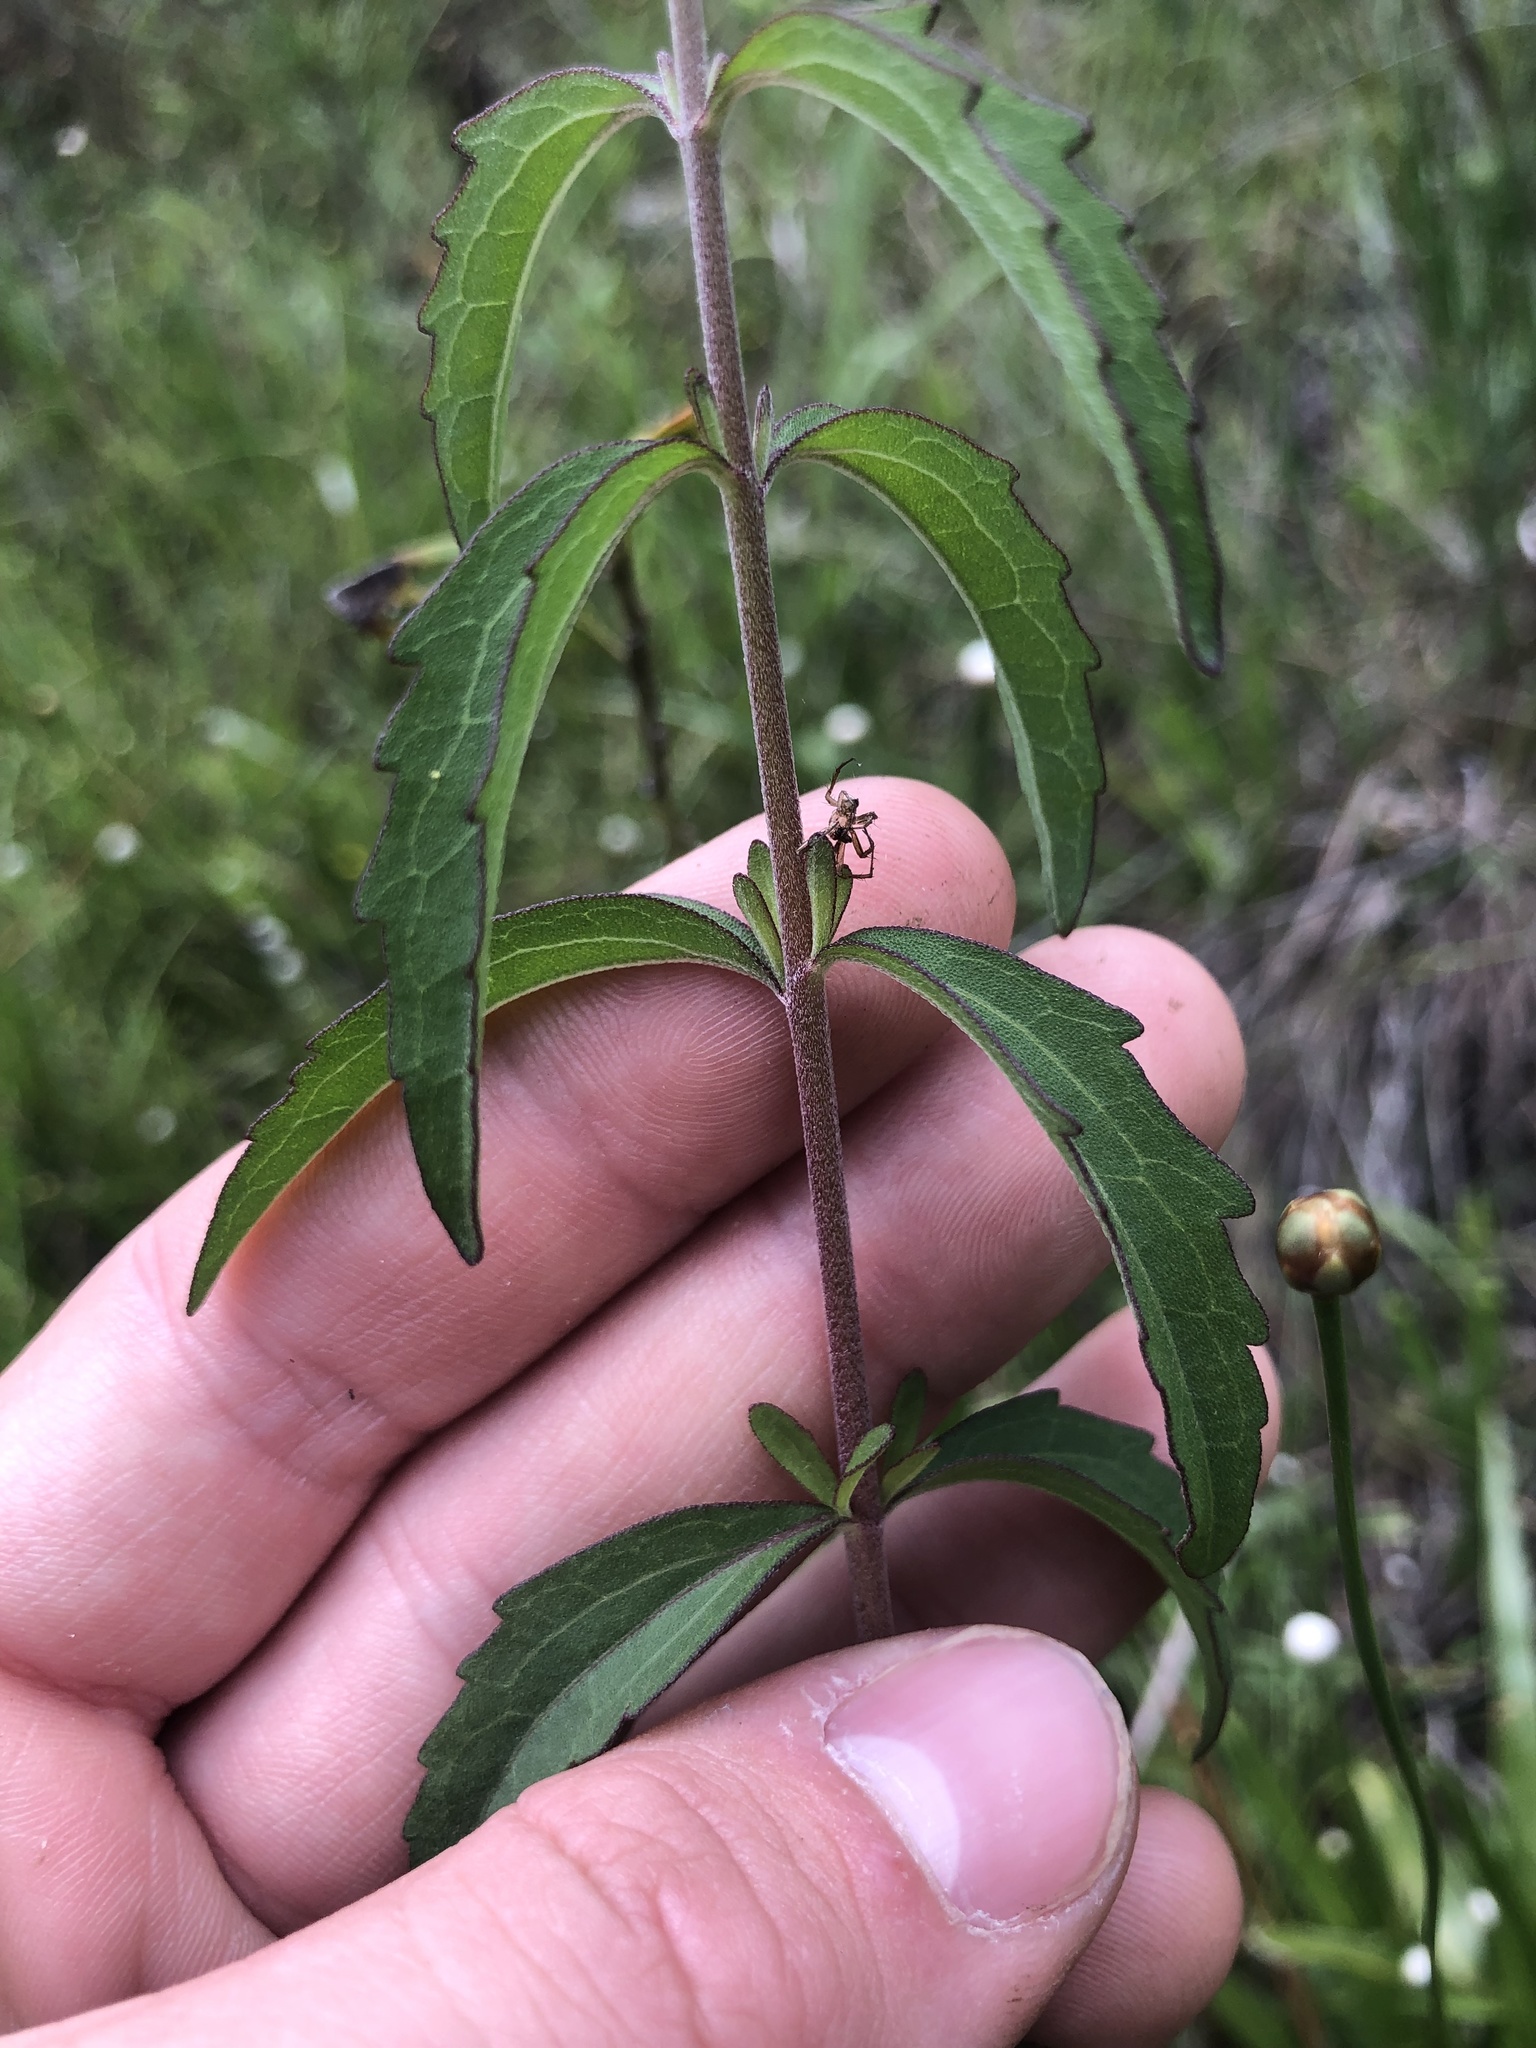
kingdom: Plantae
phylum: Tracheophyta
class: Magnoliopsida
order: Asterales
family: Asteraceae
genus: Eupatorium
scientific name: Eupatorium mohrii
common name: Mohr's thoroughwort
